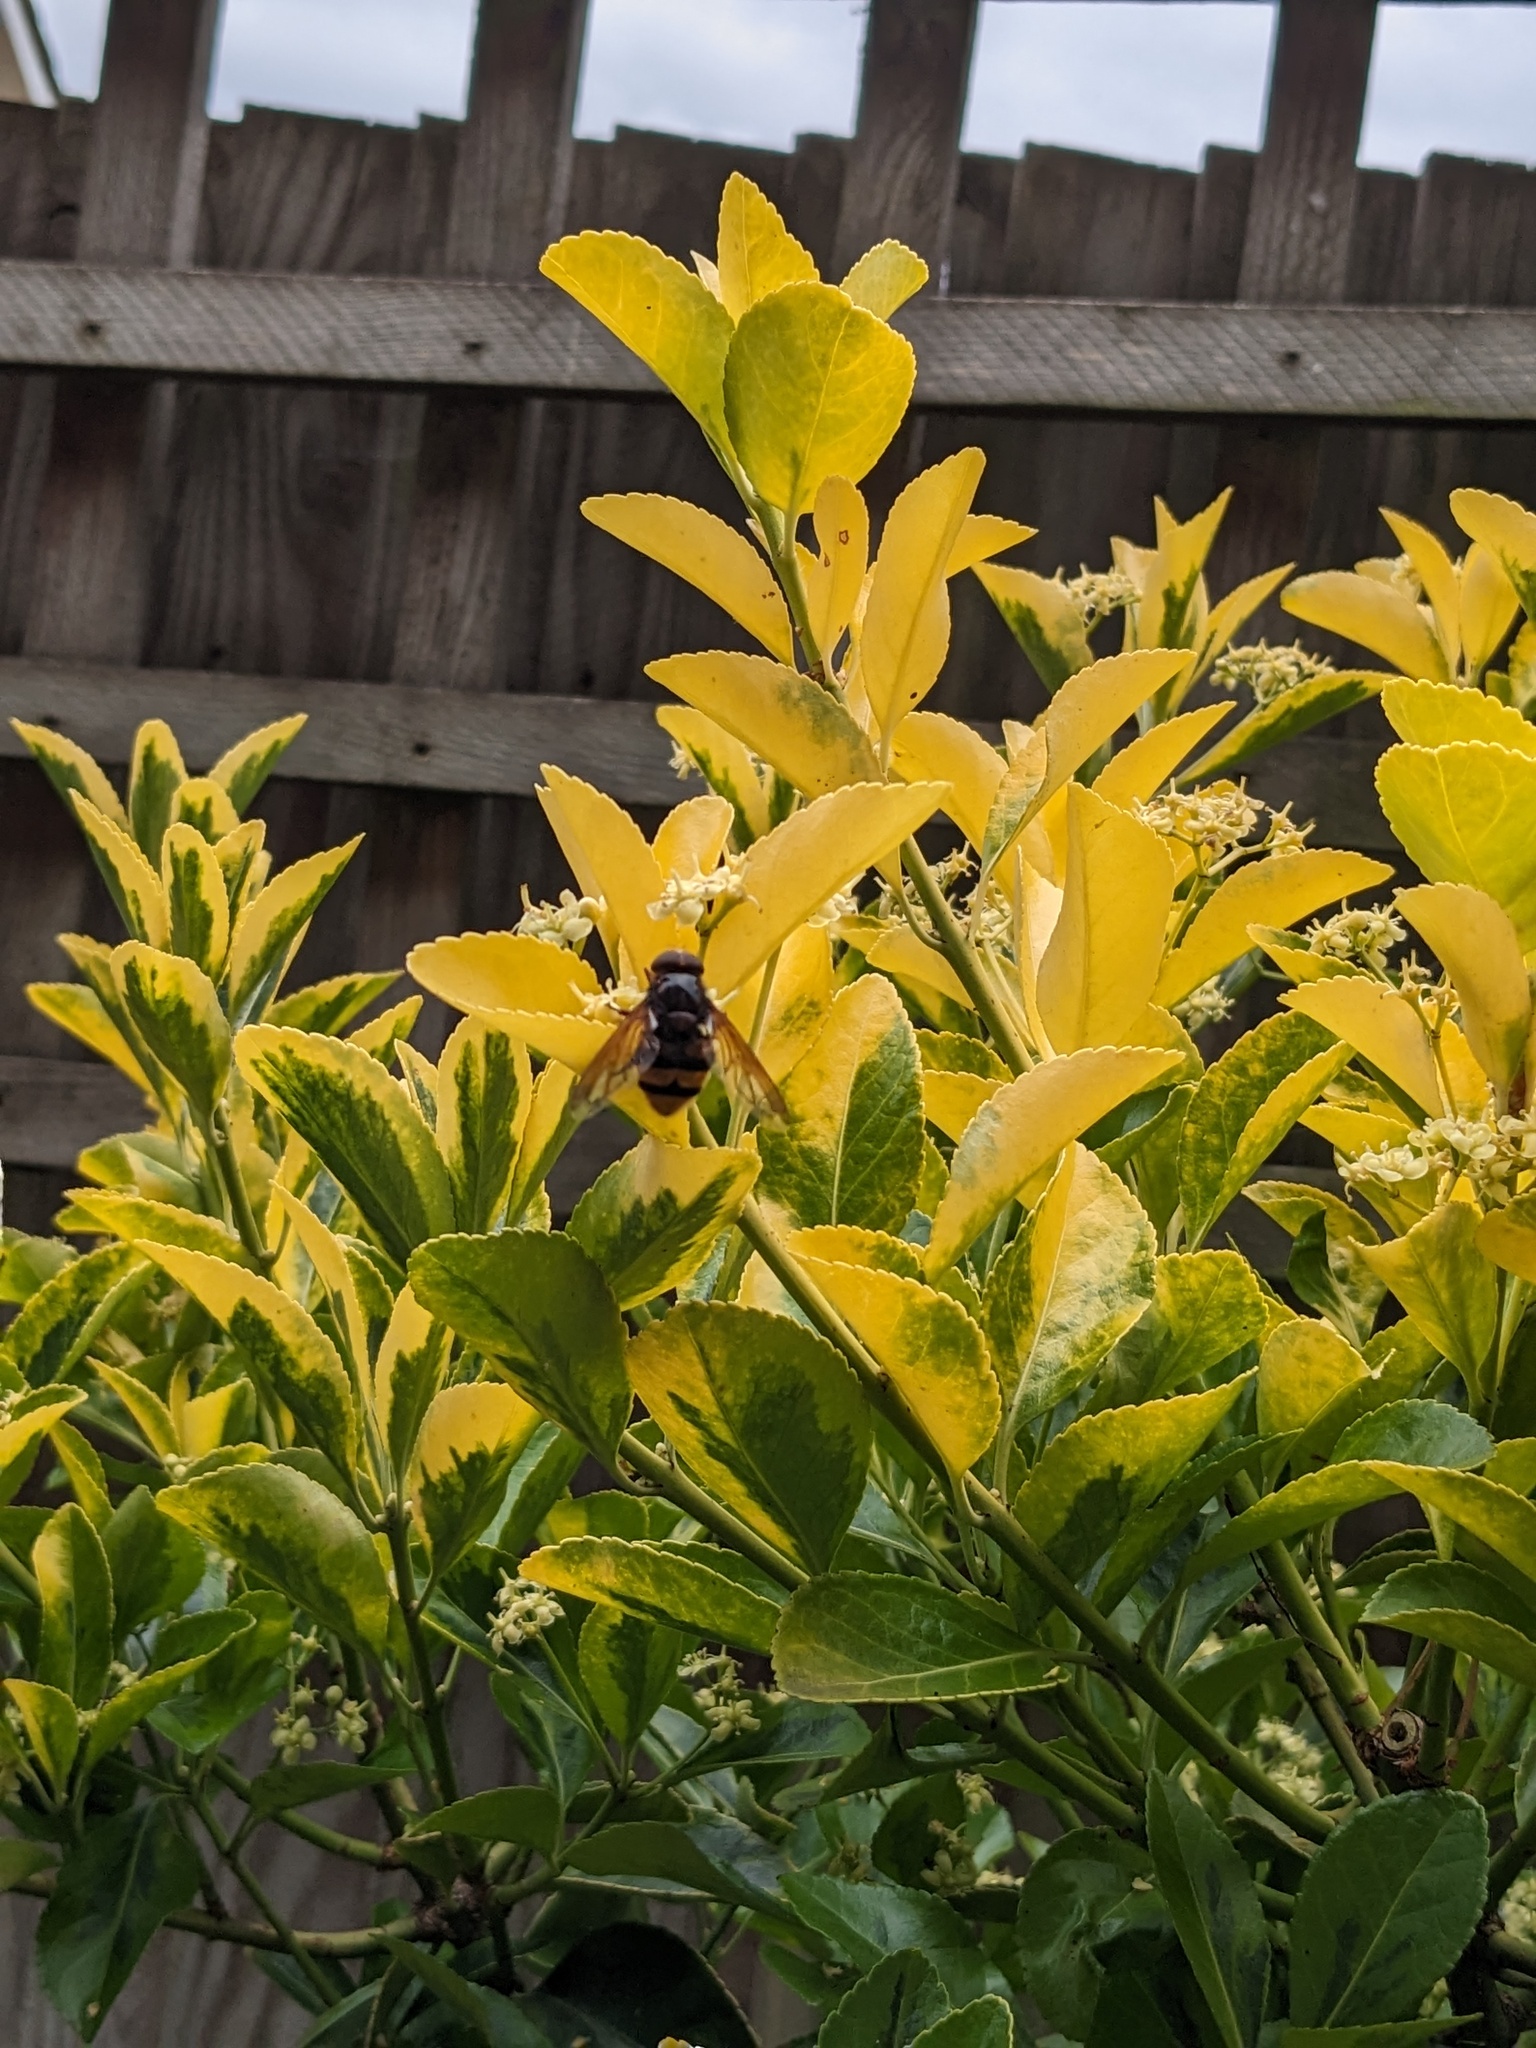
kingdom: Animalia
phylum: Arthropoda
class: Insecta
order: Diptera
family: Syrphidae
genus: Volucella
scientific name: Volucella zonaria
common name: Hornet hoverfly
